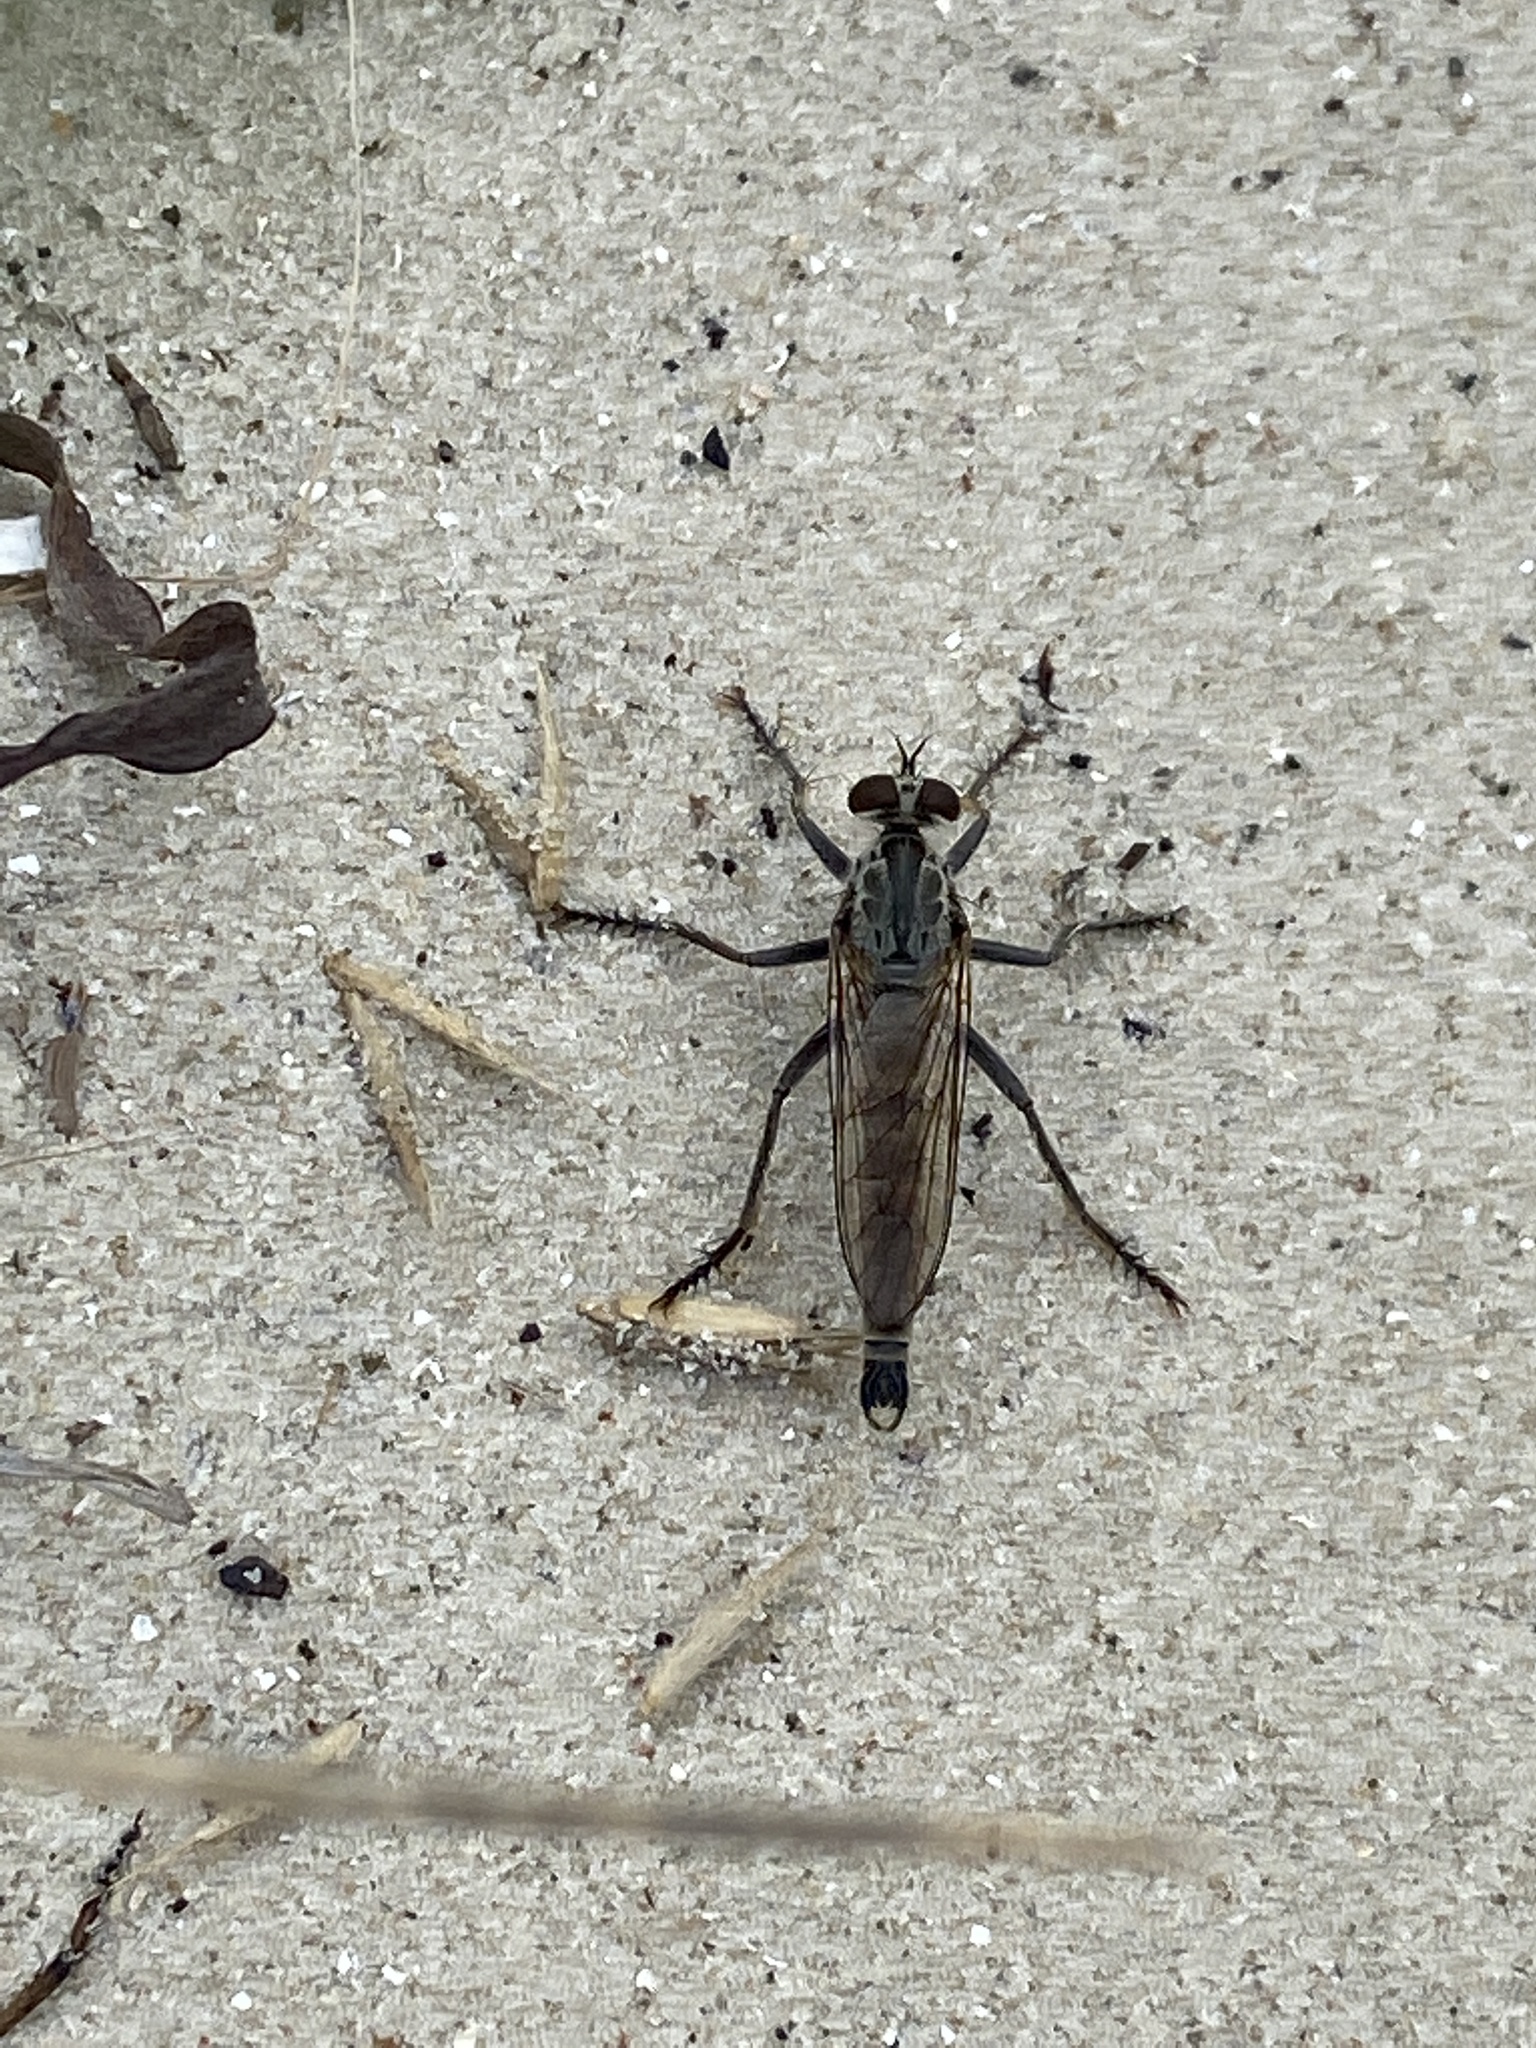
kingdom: Animalia
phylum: Arthropoda
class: Insecta
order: Diptera
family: Asilidae
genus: Philonicus
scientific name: Philonicus albiceps
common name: Dune robberfly
